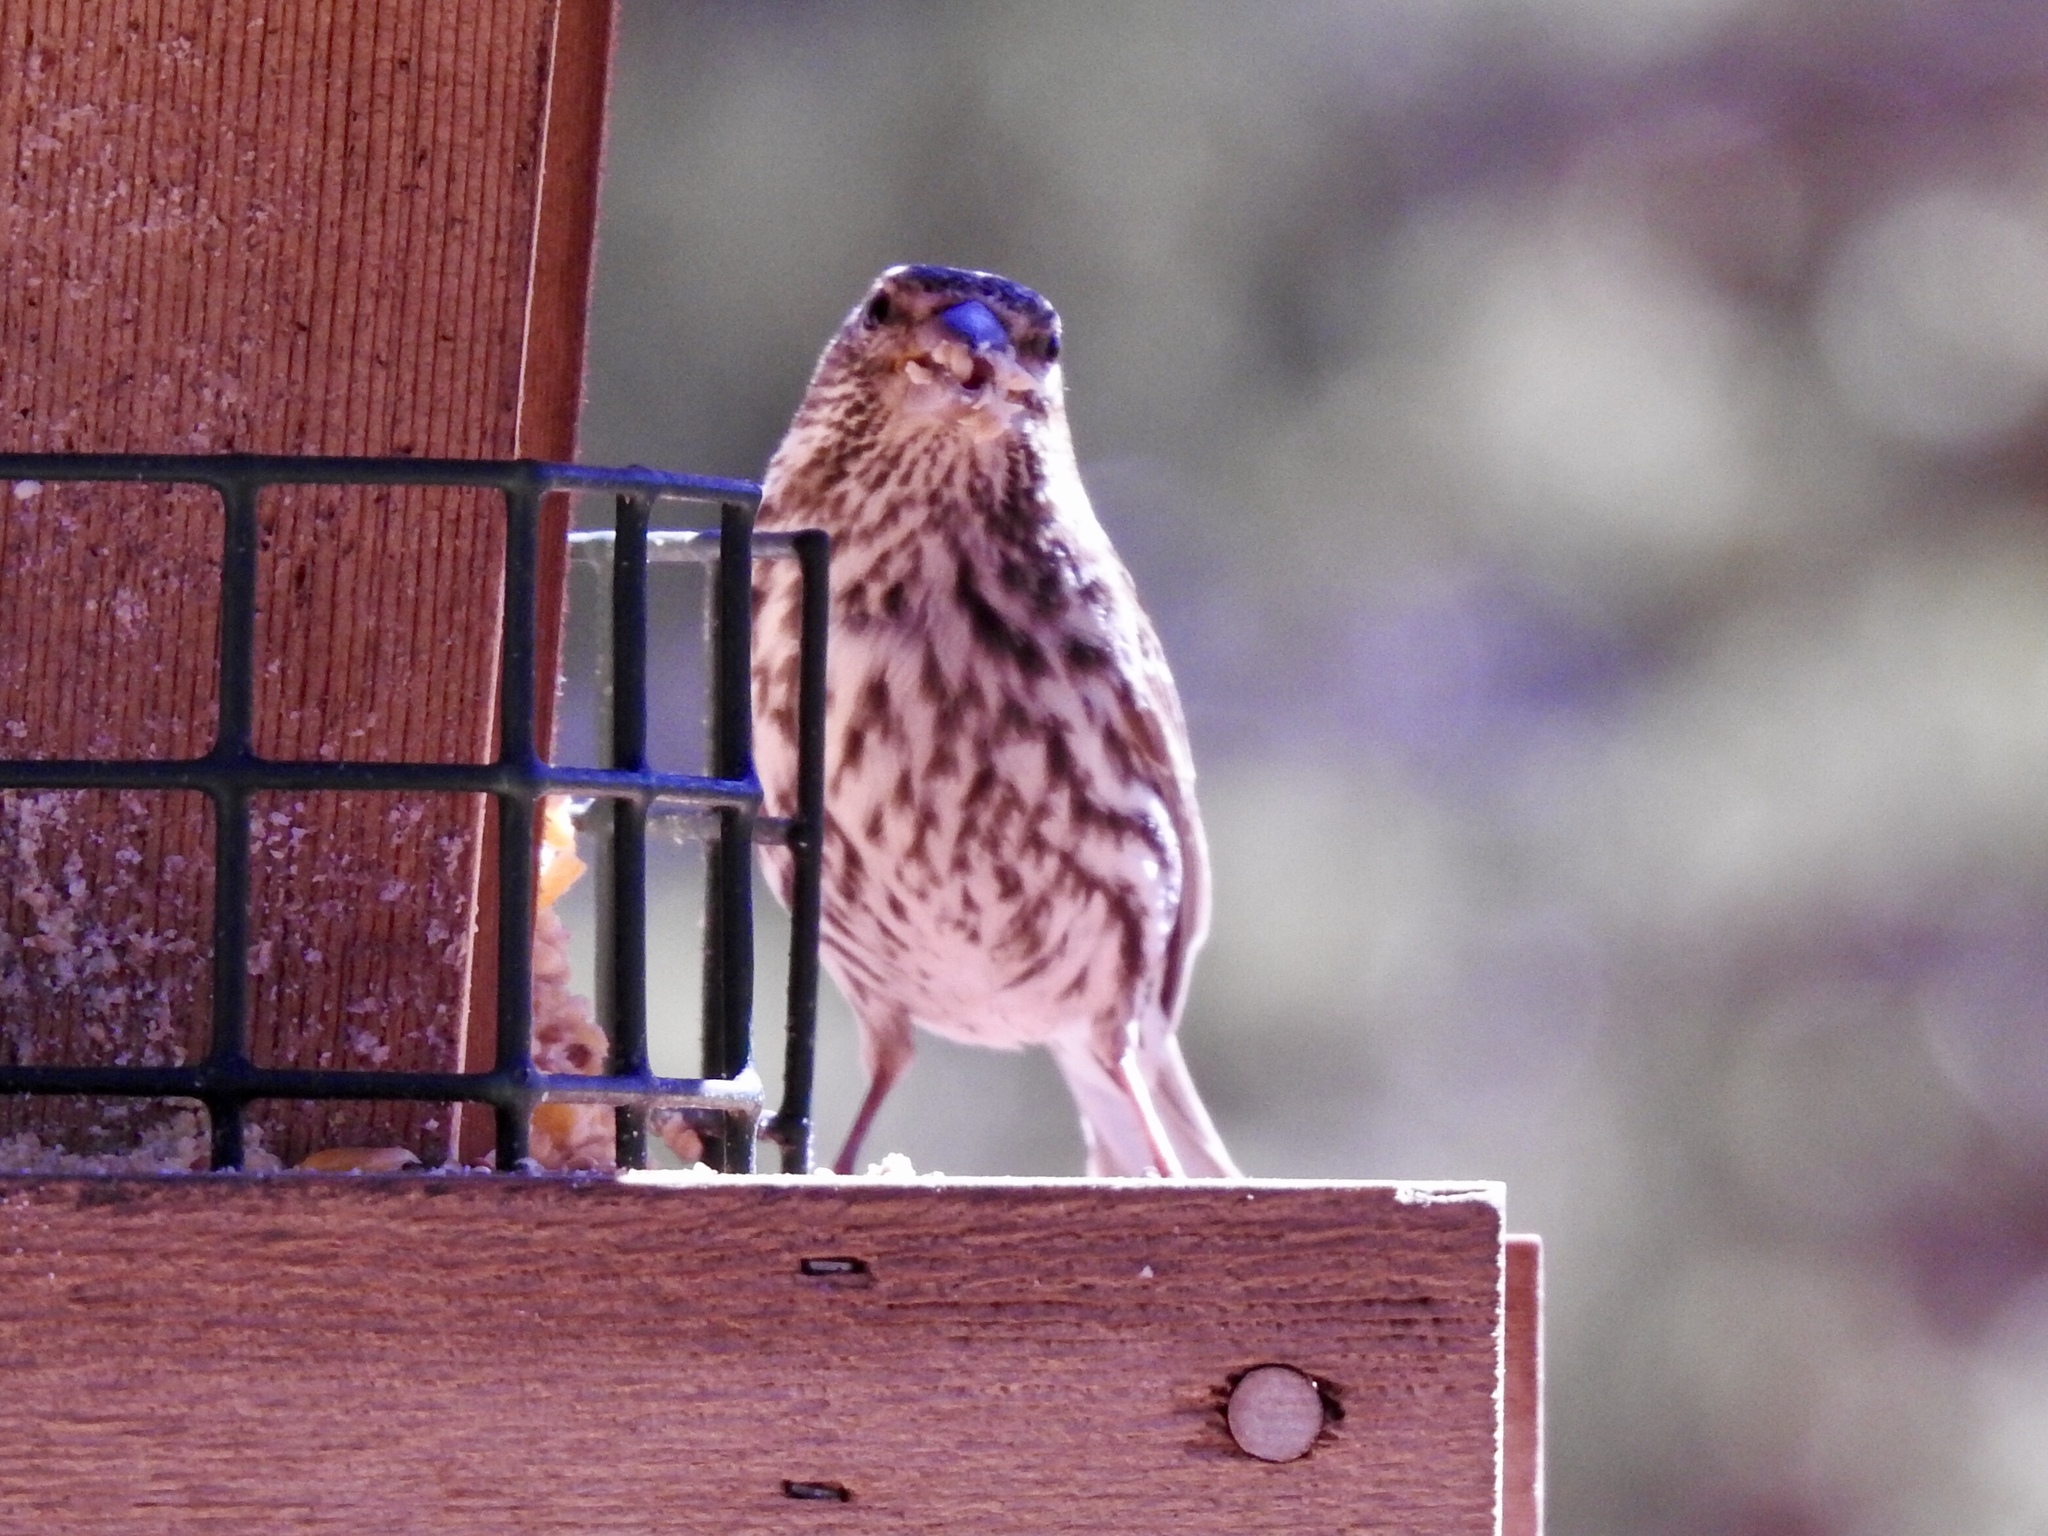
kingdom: Animalia
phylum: Chordata
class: Aves
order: Passeriformes
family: Fringillidae
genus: Haemorhous
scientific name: Haemorhous cassinii
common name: Cassin's finch
